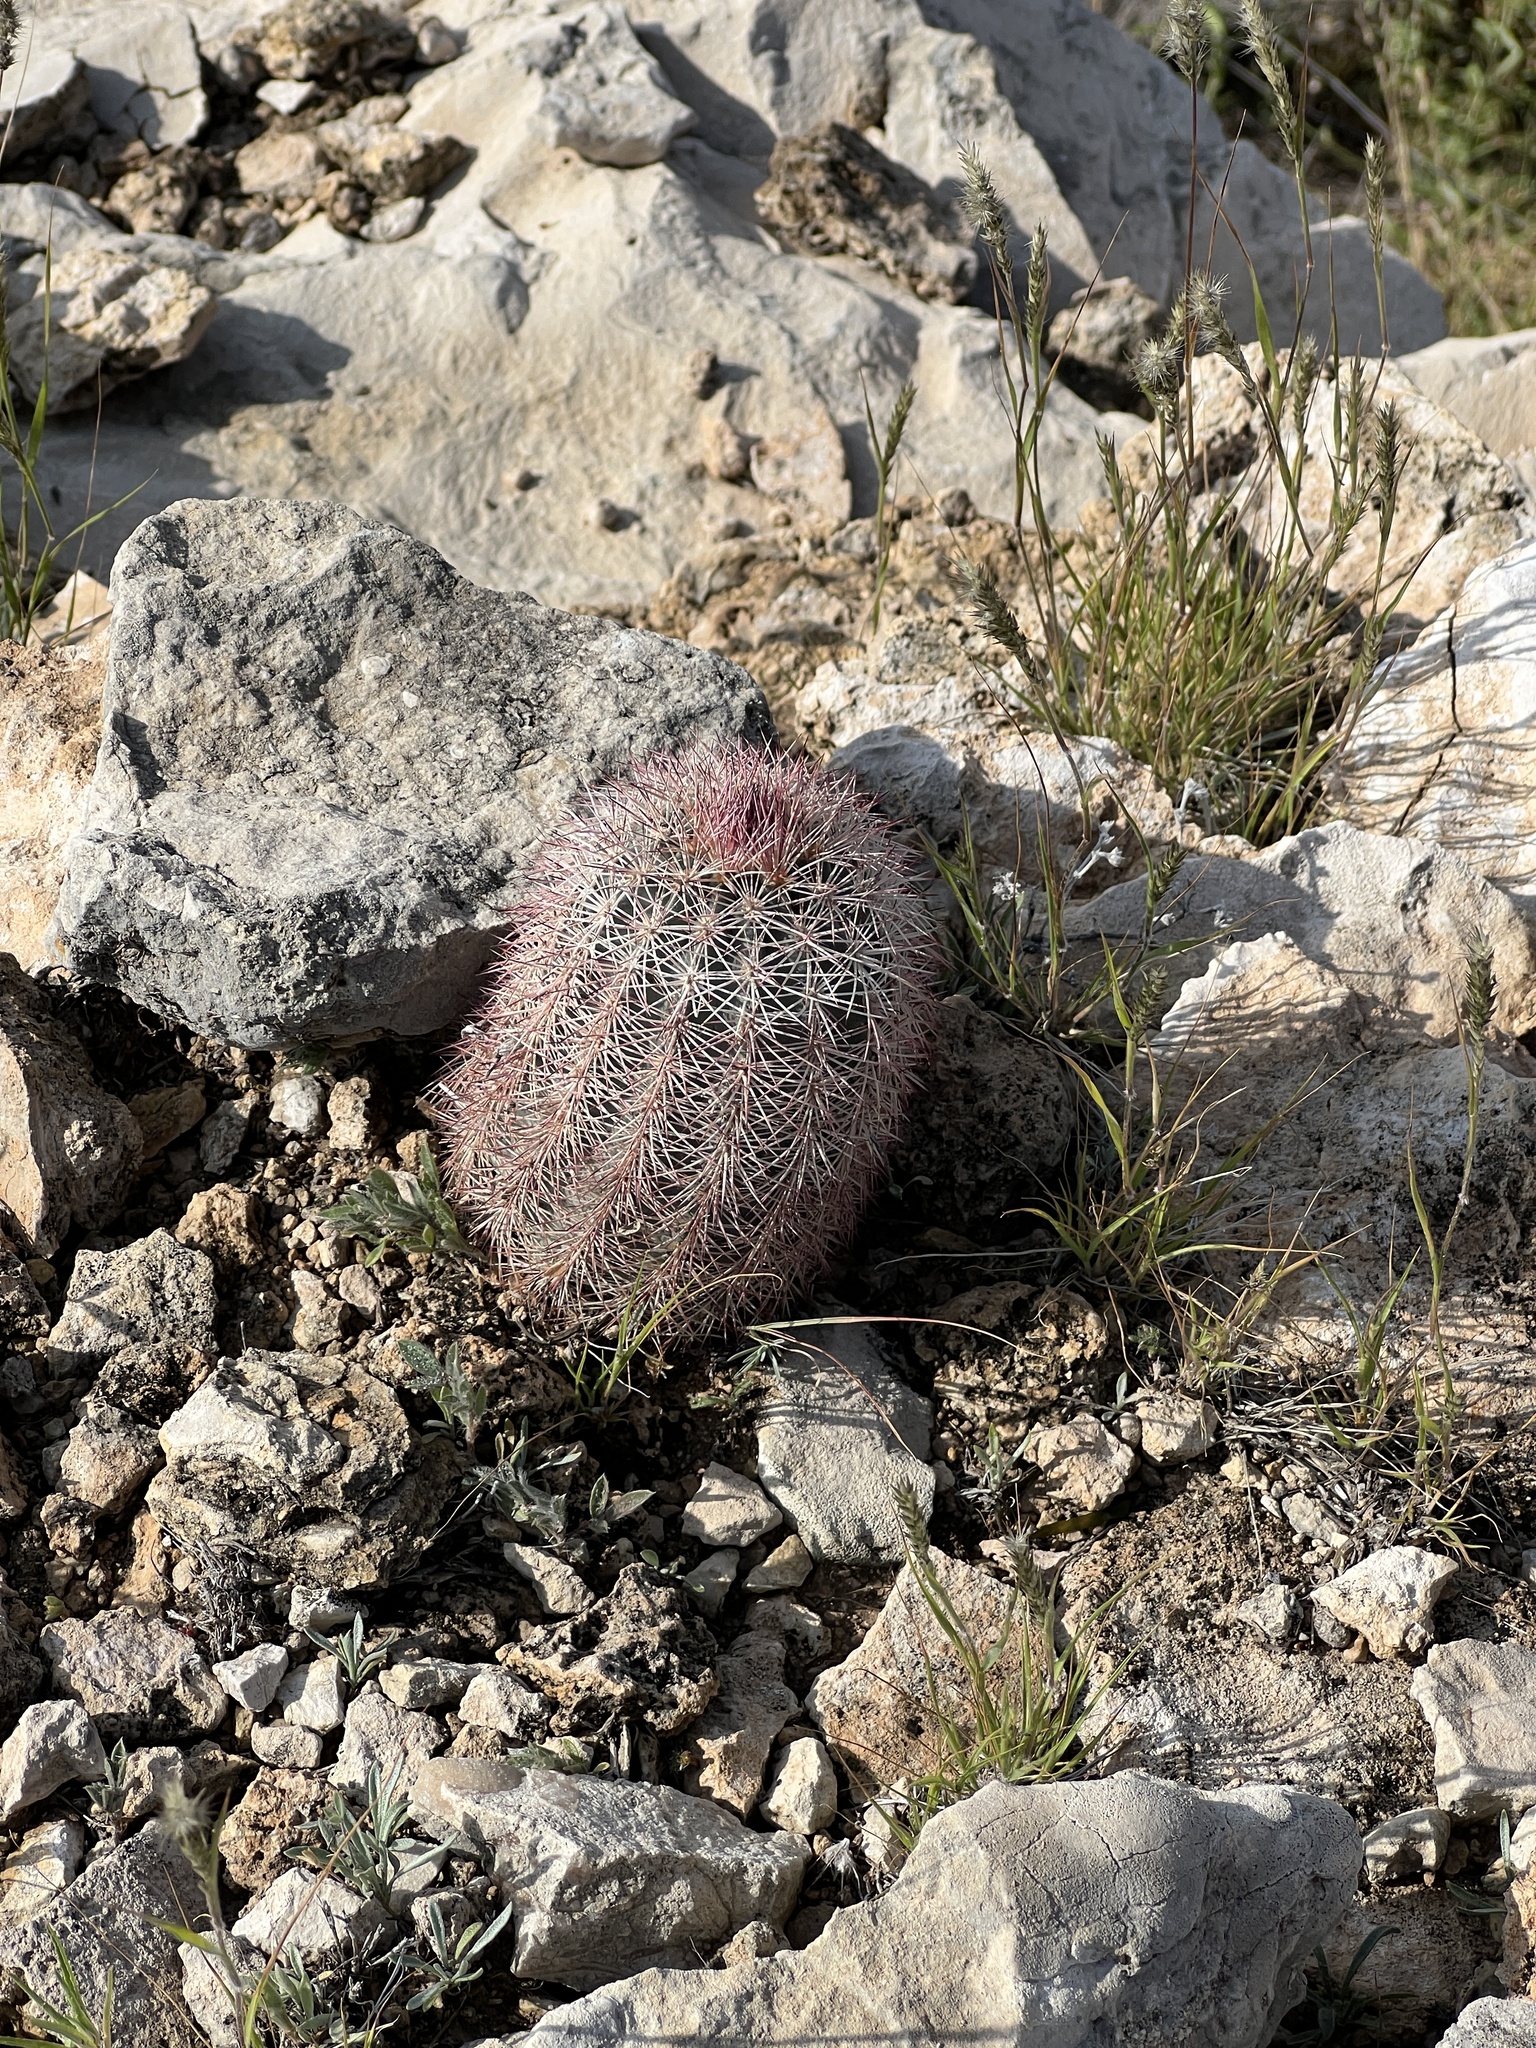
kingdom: Plantae
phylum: Tracheophyta
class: Magnoliopsida
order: Caryophyllales
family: Cactaceae
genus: Echinocereus
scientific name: Echinocereus dasyacanthus
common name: Spiny hedgehog cactus
